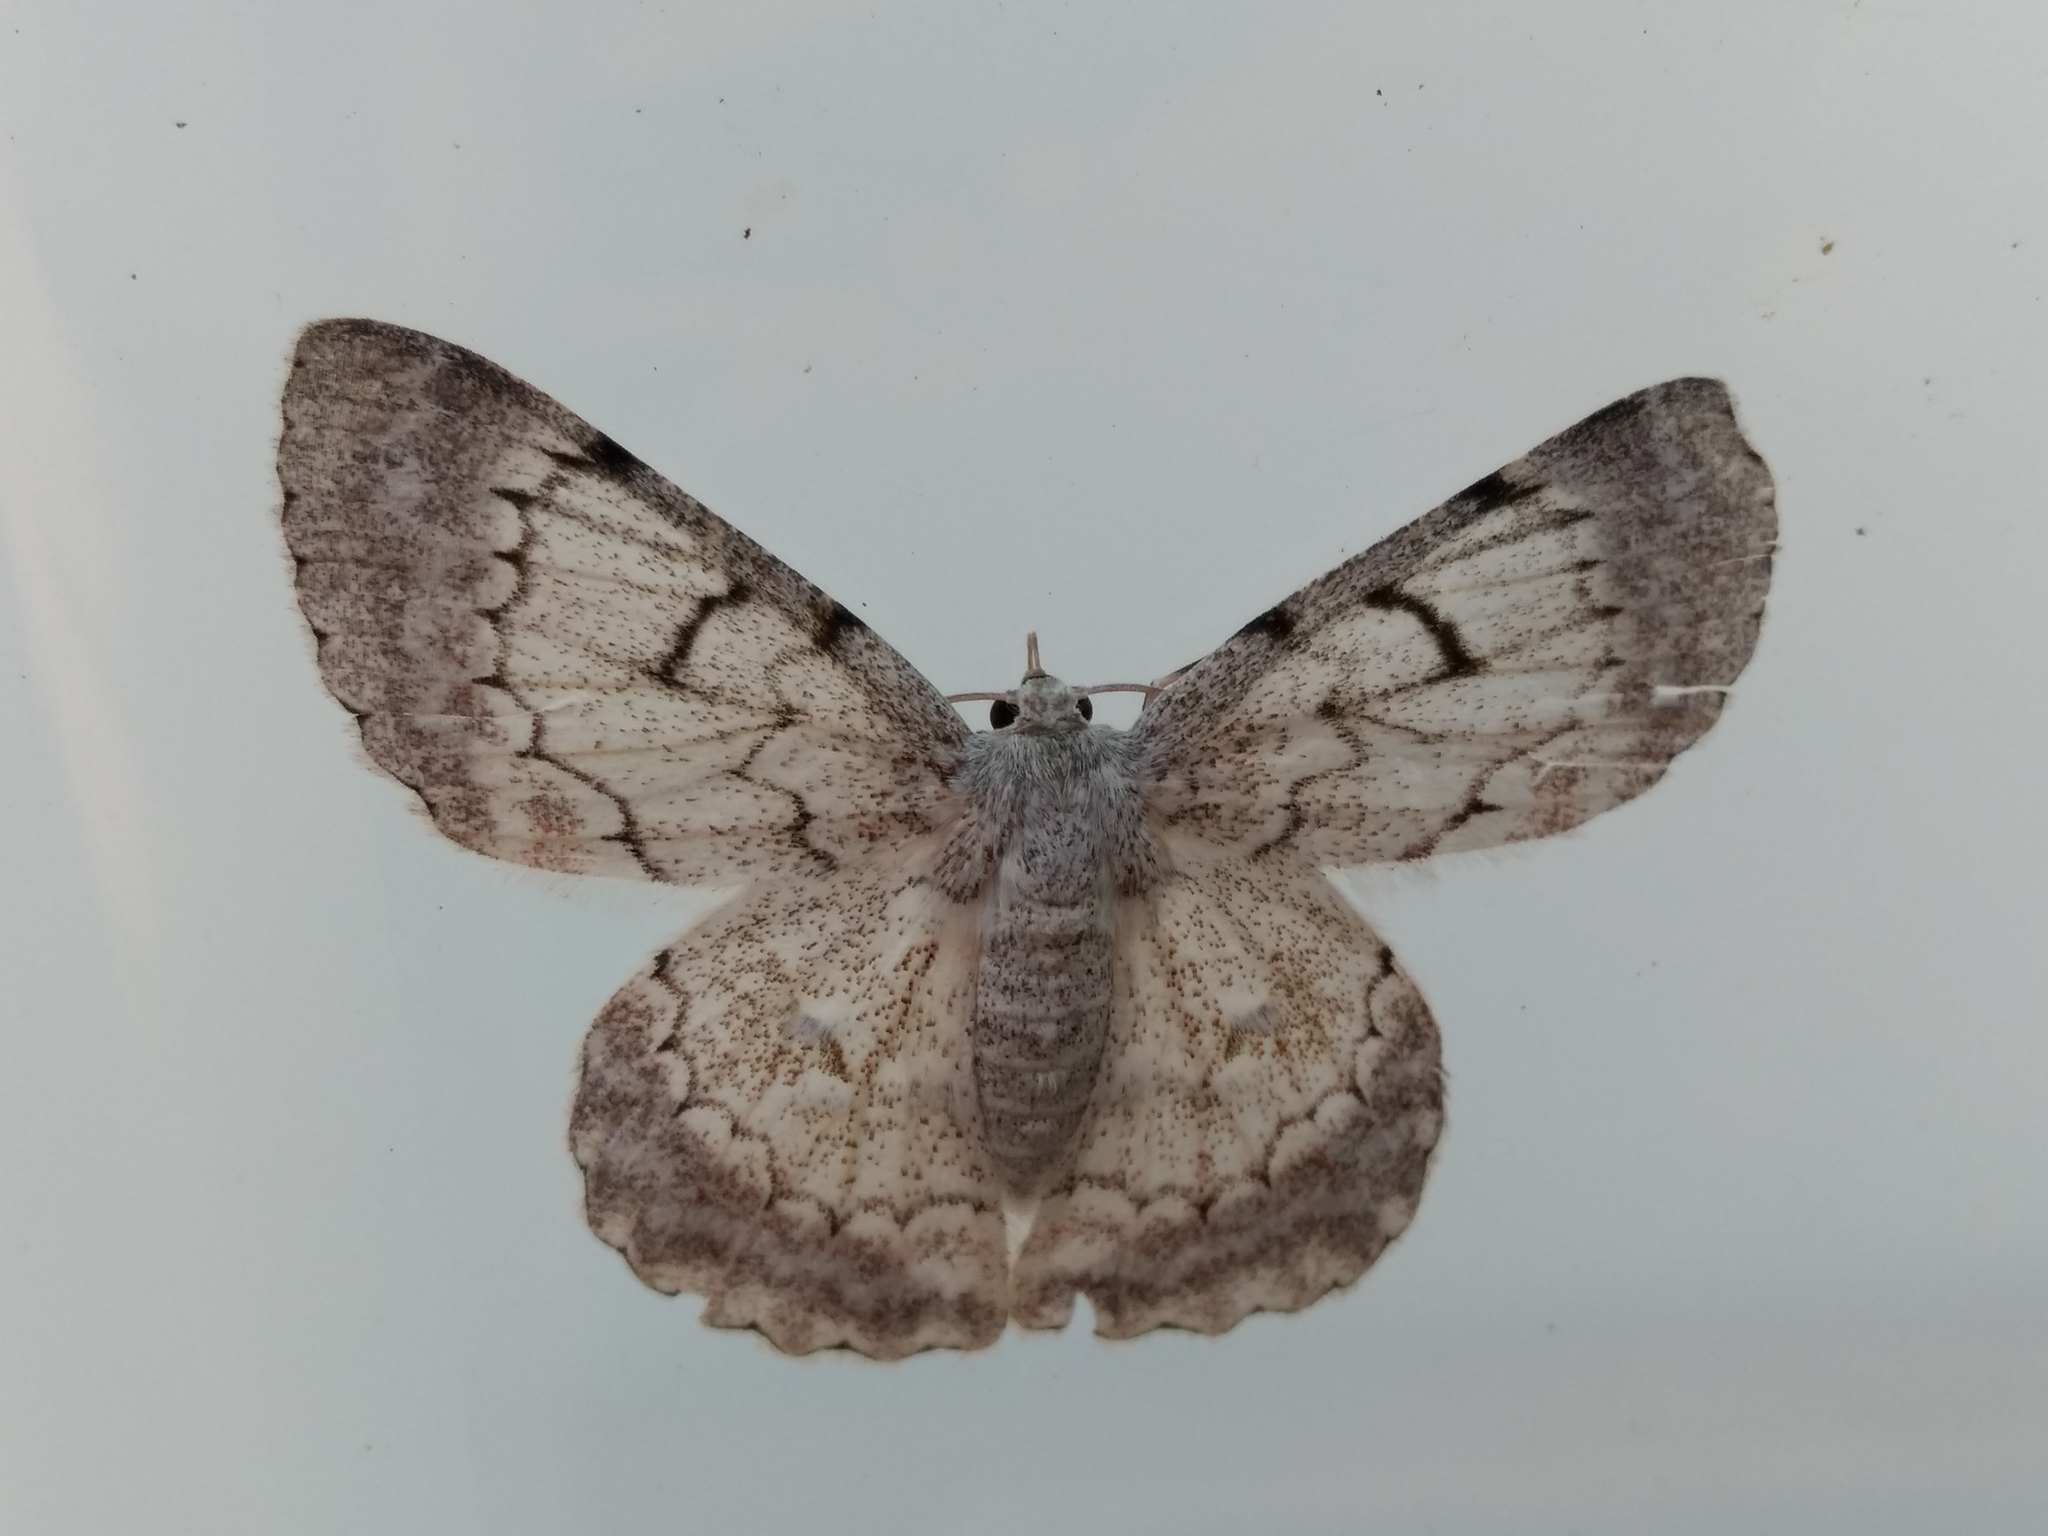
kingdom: Animalia
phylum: Arthropoda
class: Insecta
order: Lepidoptera
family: Geometridae
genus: Pingasa
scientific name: Pingasa chlora
